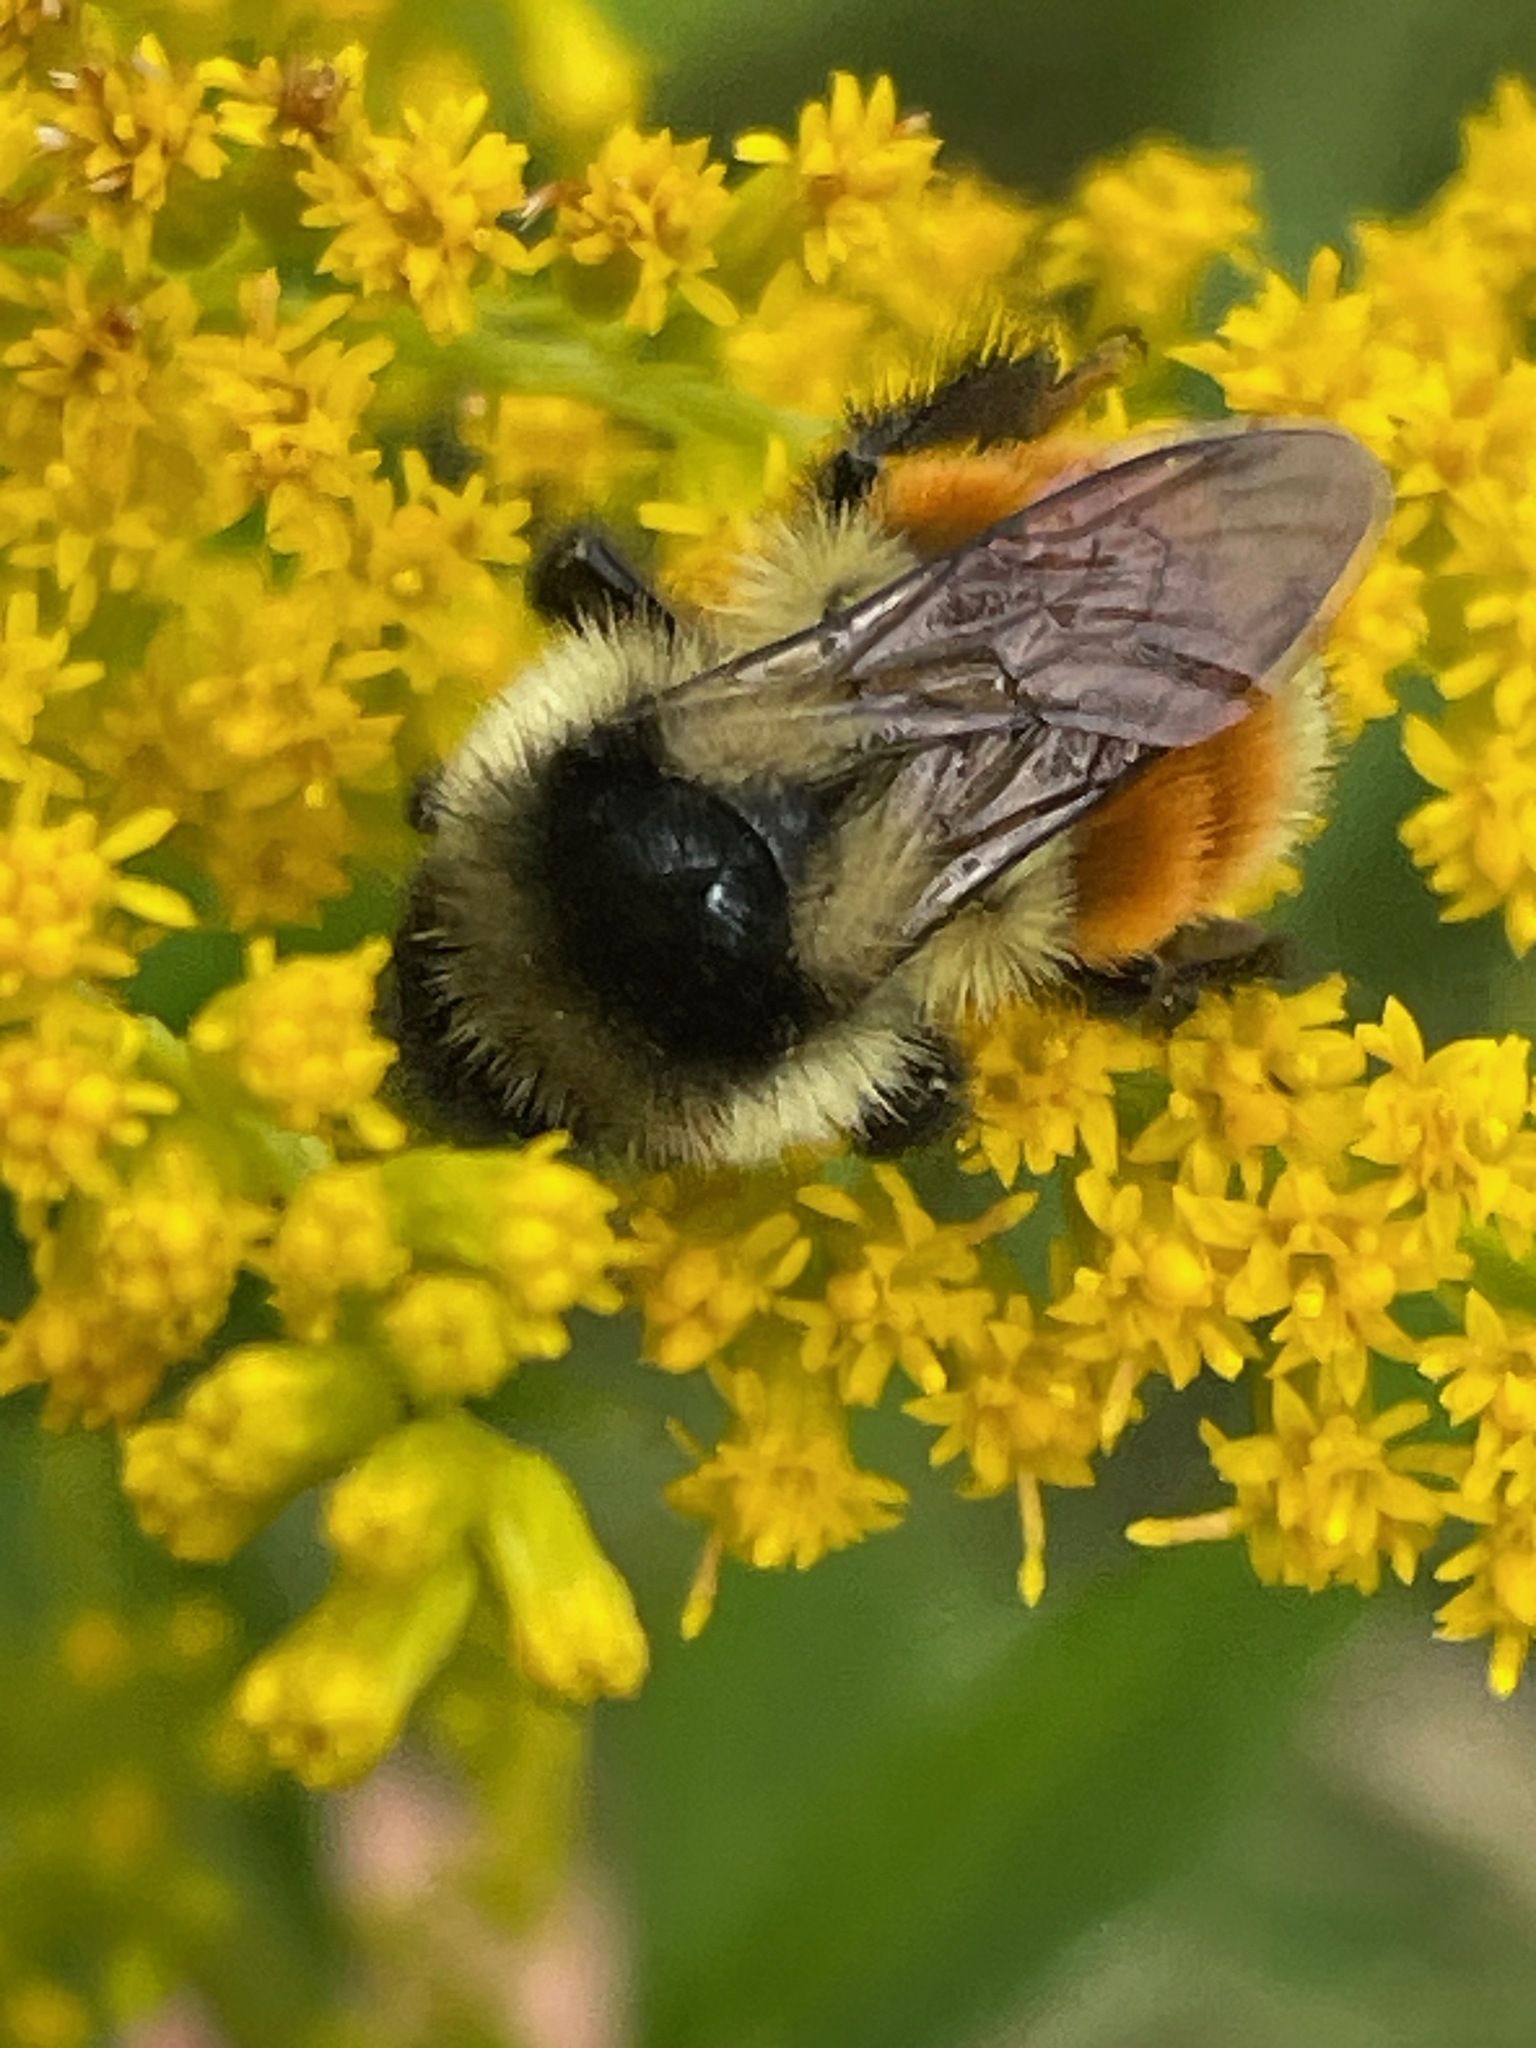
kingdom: Animalia
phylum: Arthropoda
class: Insecta
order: Hymenoptera
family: Apidae
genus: Bombus
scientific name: Bombus ternarius
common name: Tri-colored bumble bee
